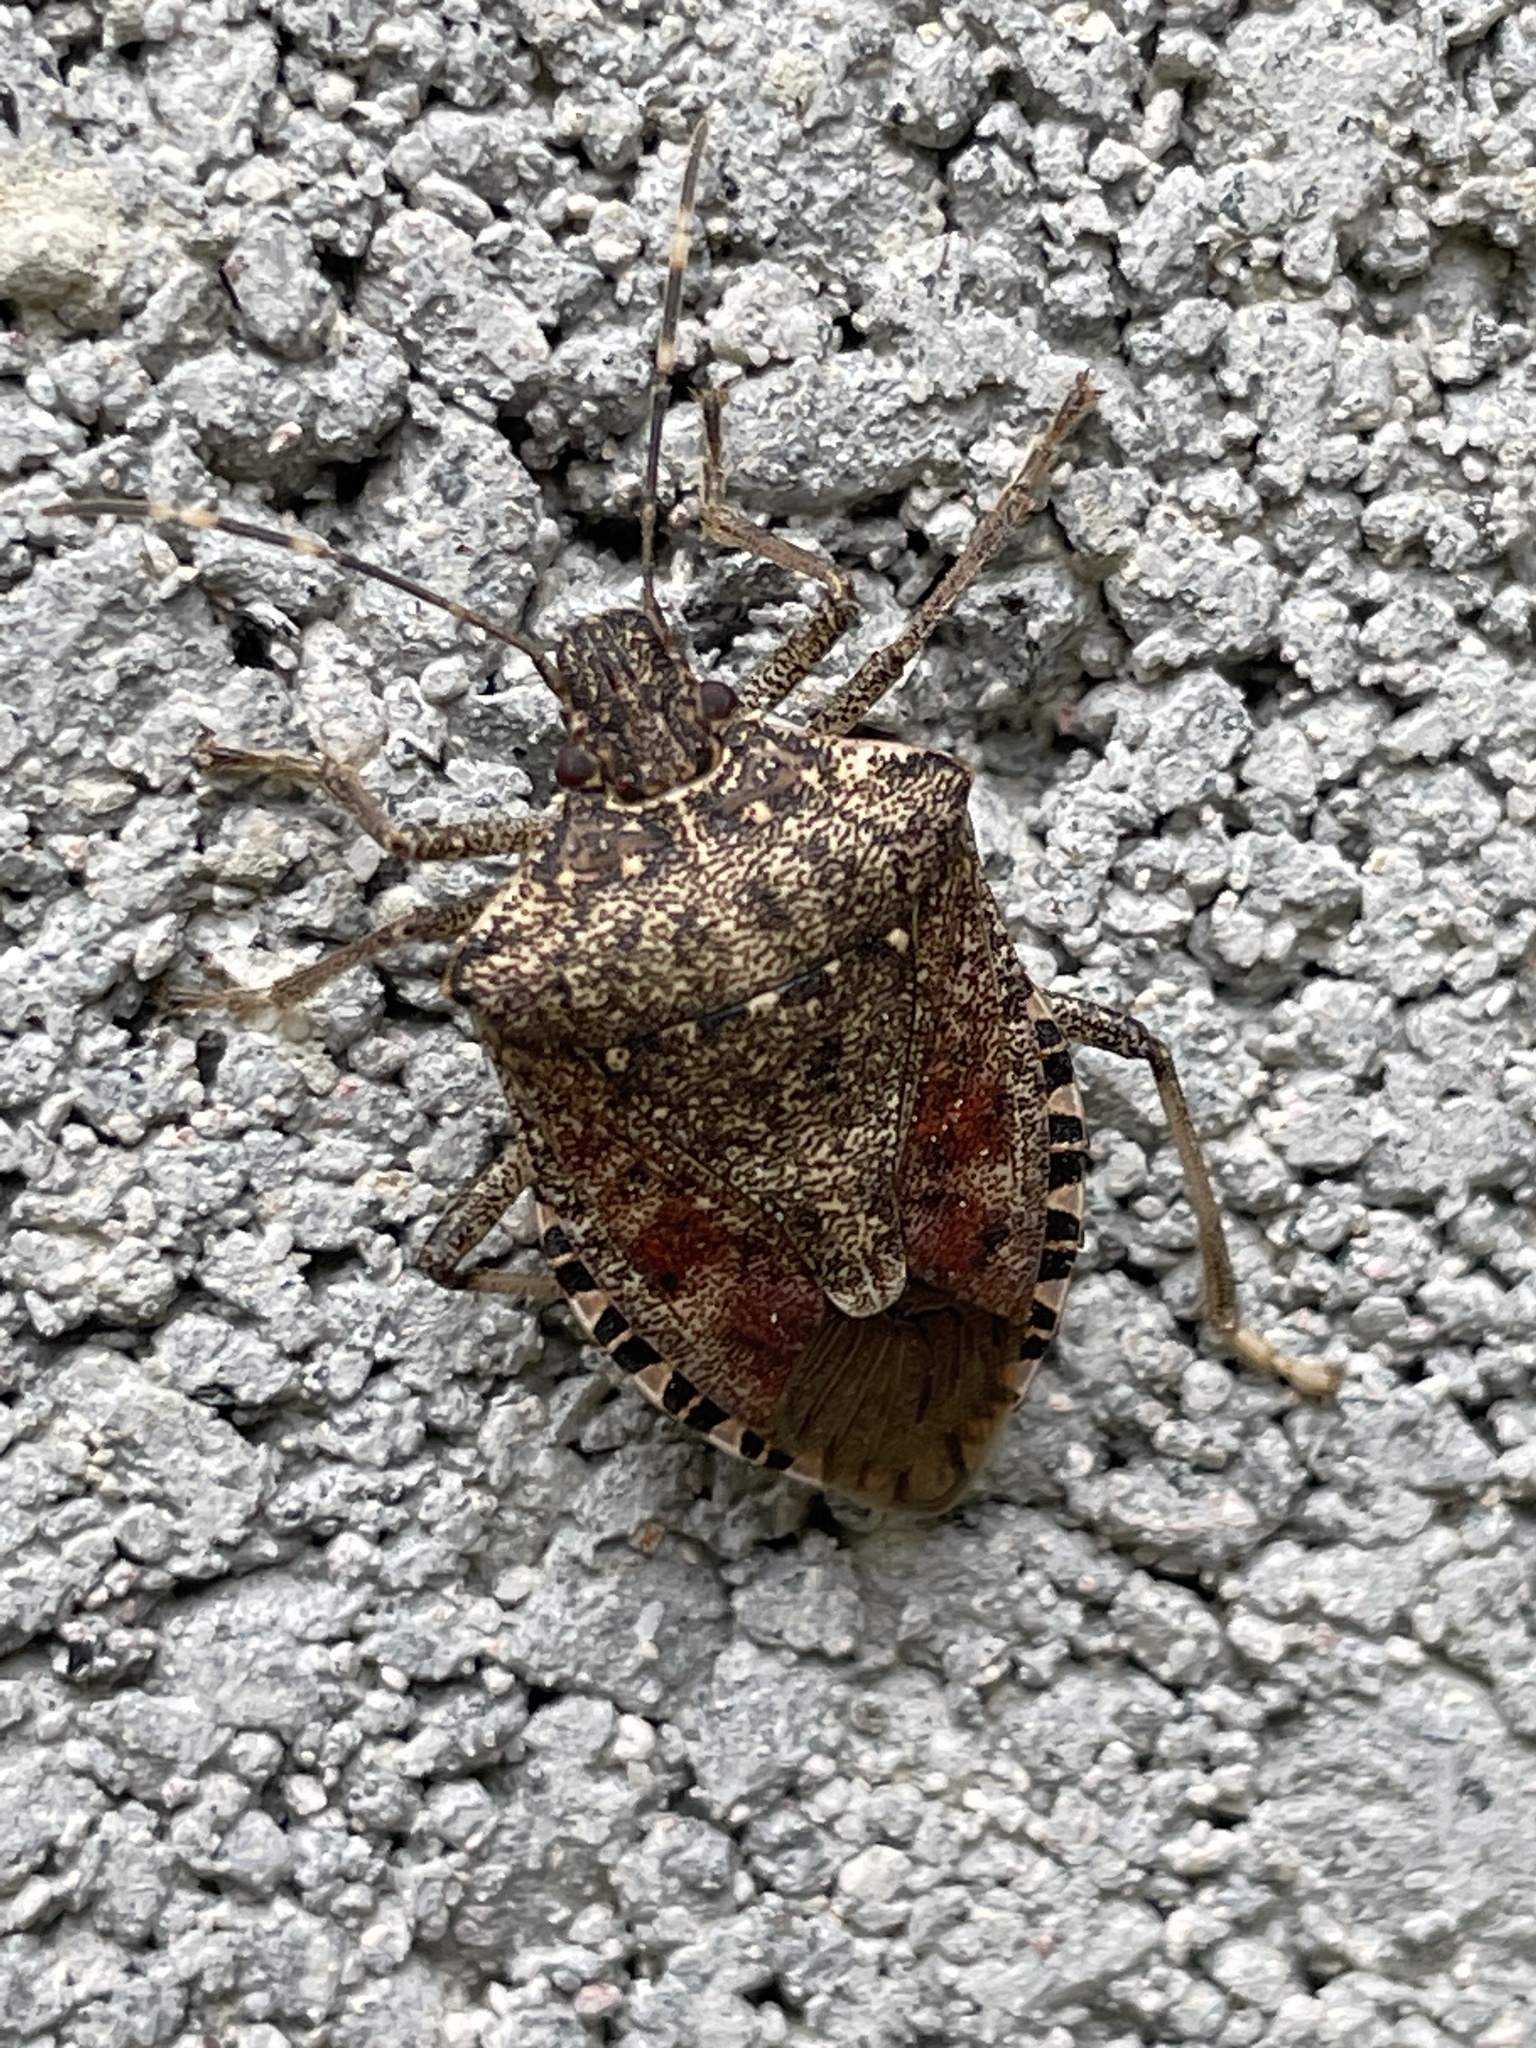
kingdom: Animalia
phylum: Arthropoda
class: Insecta
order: Hemiptera
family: Pentatomidae
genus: Halyomorpha
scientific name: Halyomorpha halys
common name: Brown marmorated stink bug
